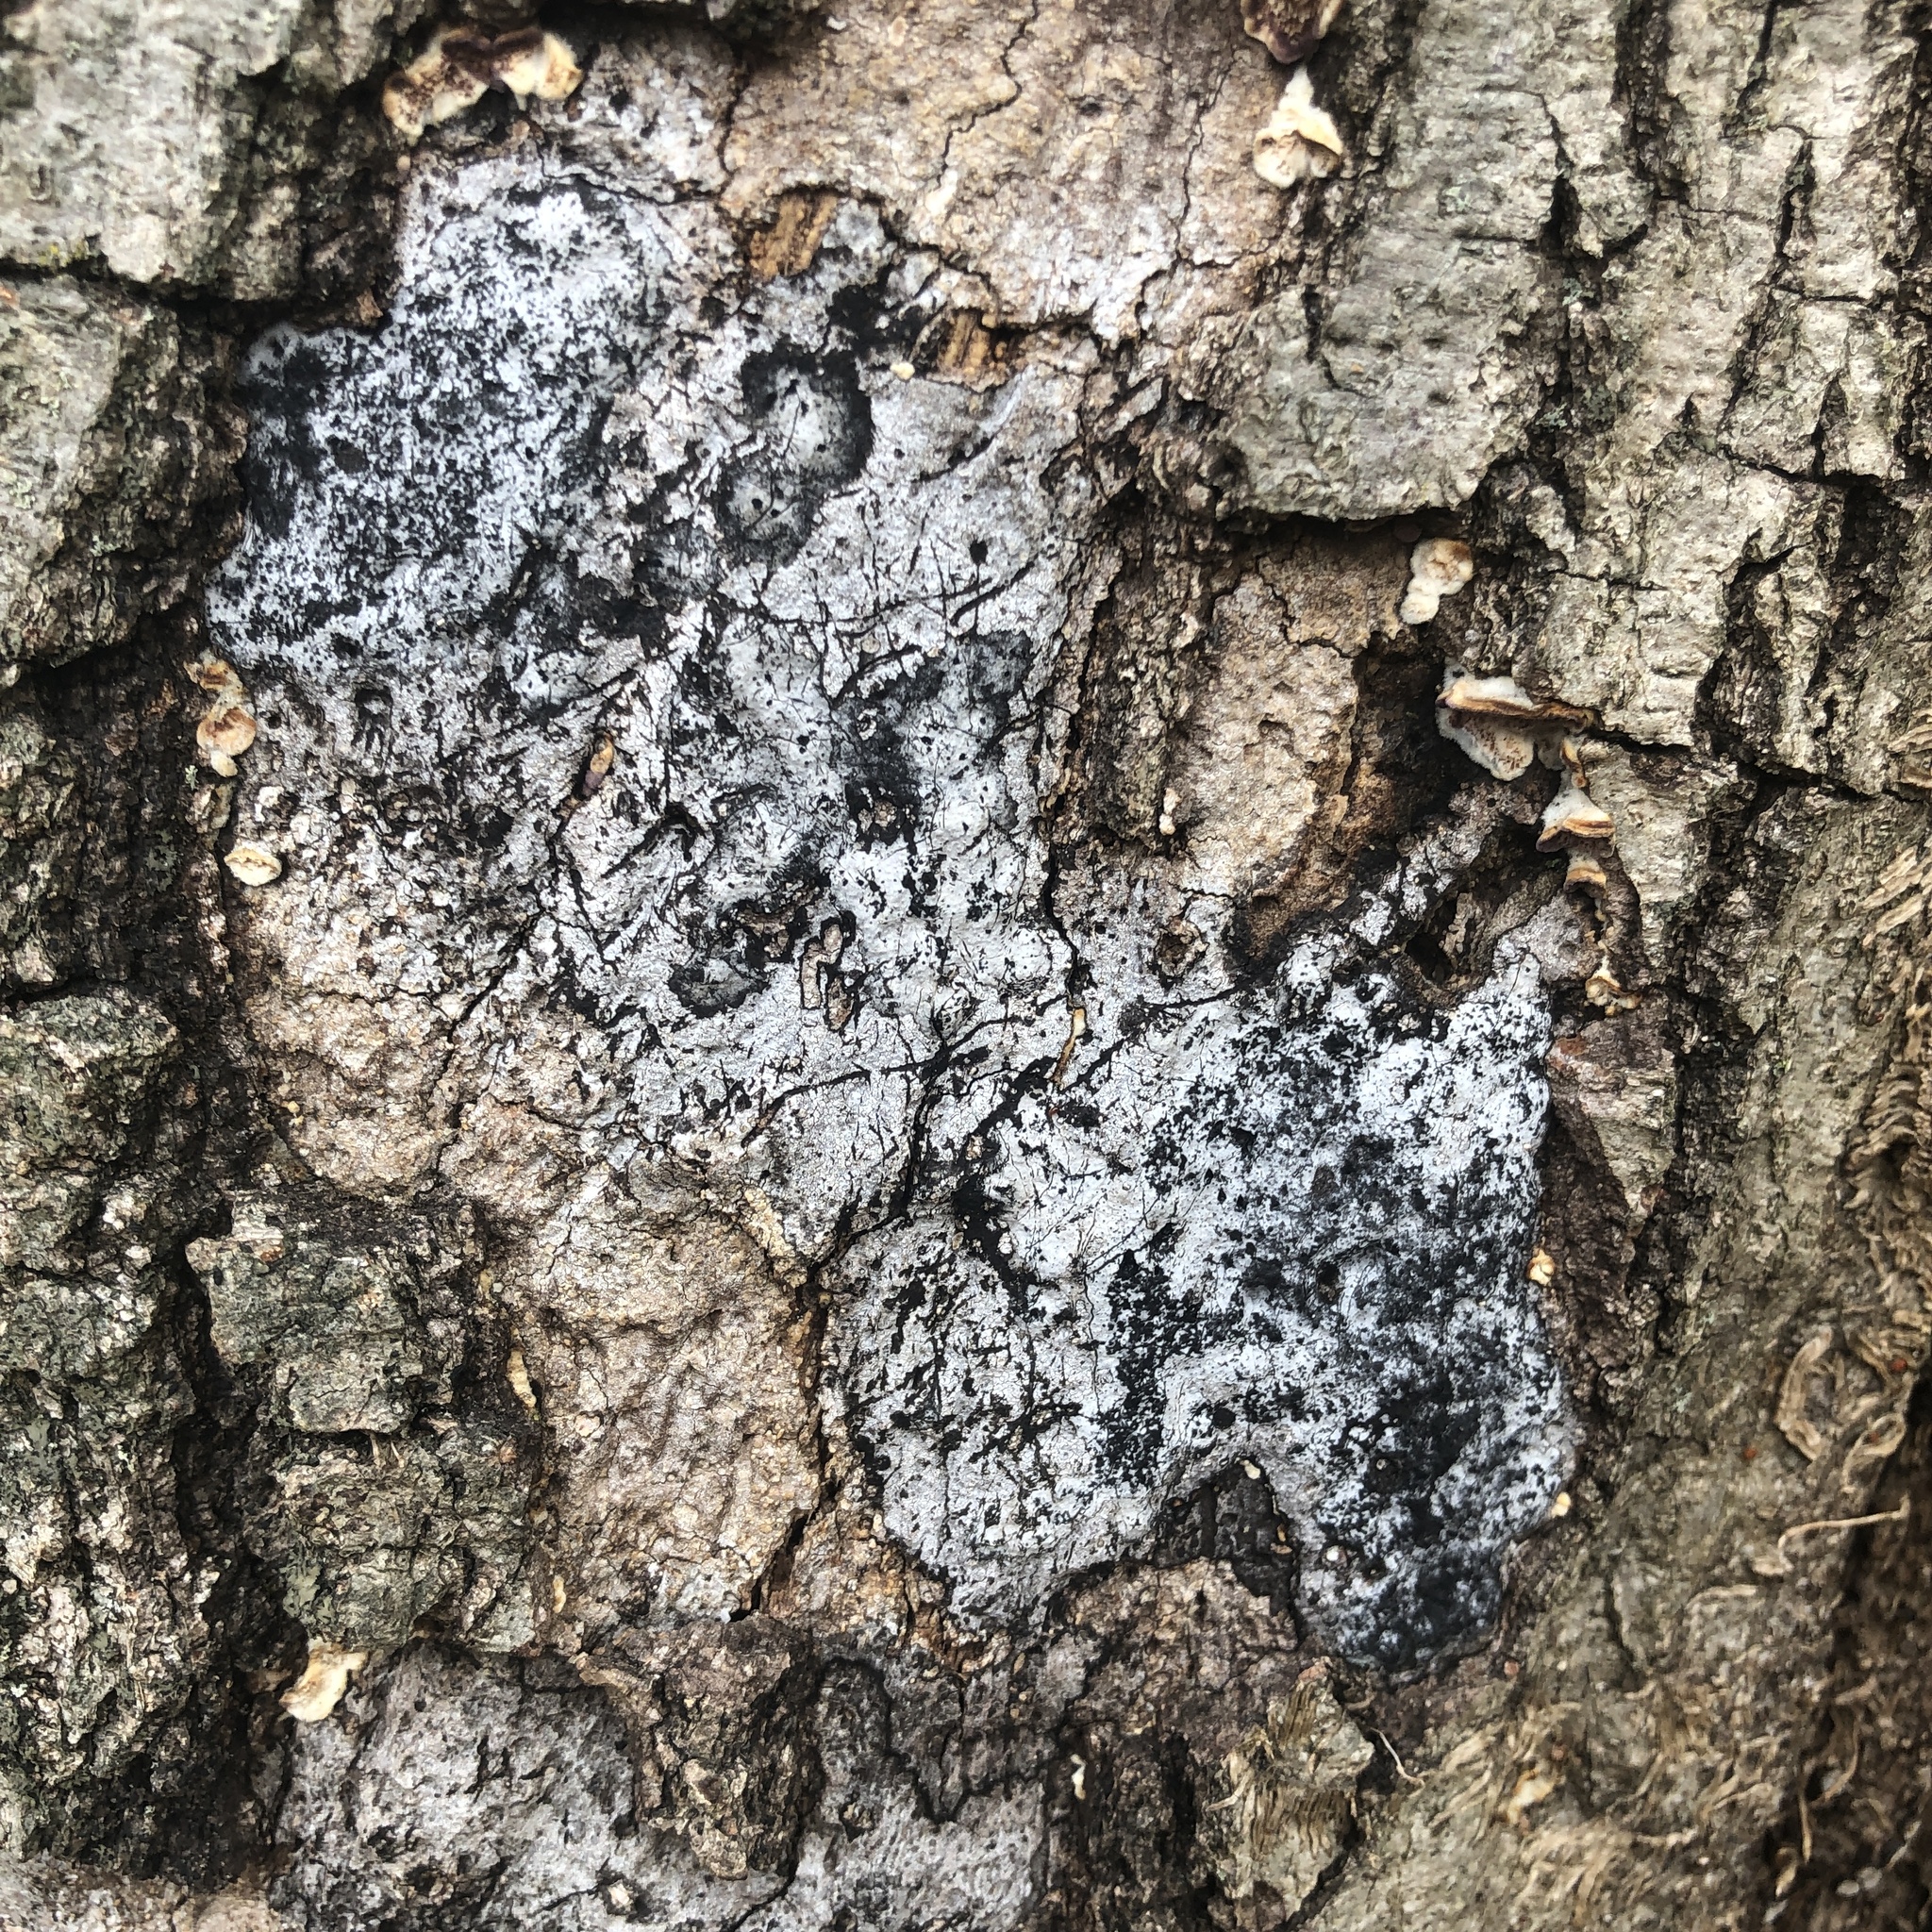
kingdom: Fungi
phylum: Ascomycota
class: Sordariomycetes
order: Xylariales
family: Graphostromataceae
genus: Biscogniauxia
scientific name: Biscogniauxia atropunctata
